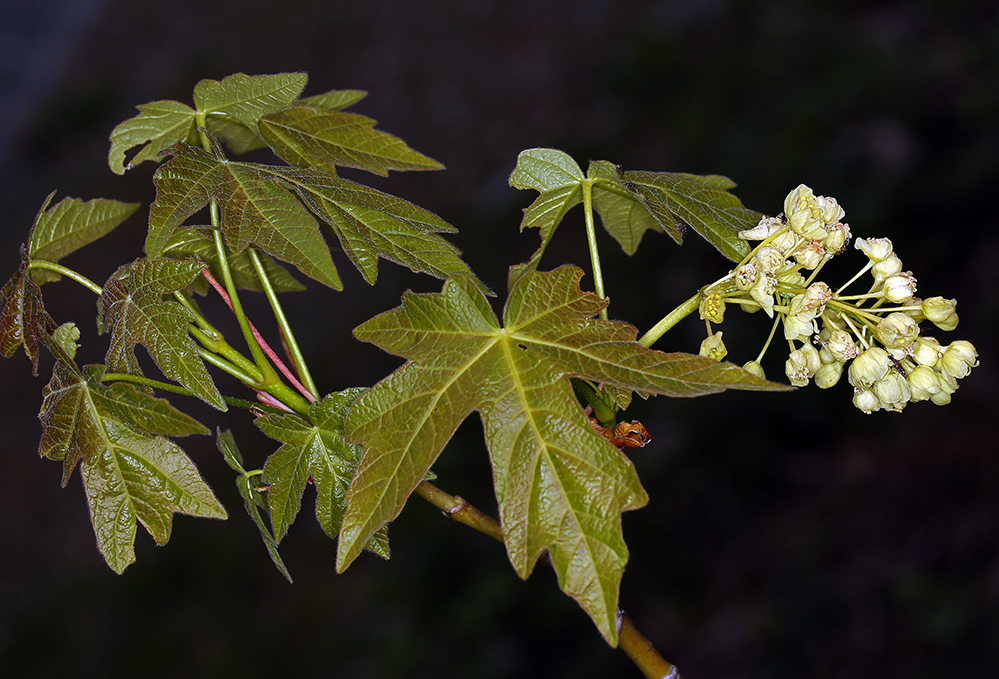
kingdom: Plantae
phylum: Tracheophyta
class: Magnoliopsida
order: Sapindales
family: Sapindaceae
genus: Acer
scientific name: Acer macrophyllum
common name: Oregon maple
